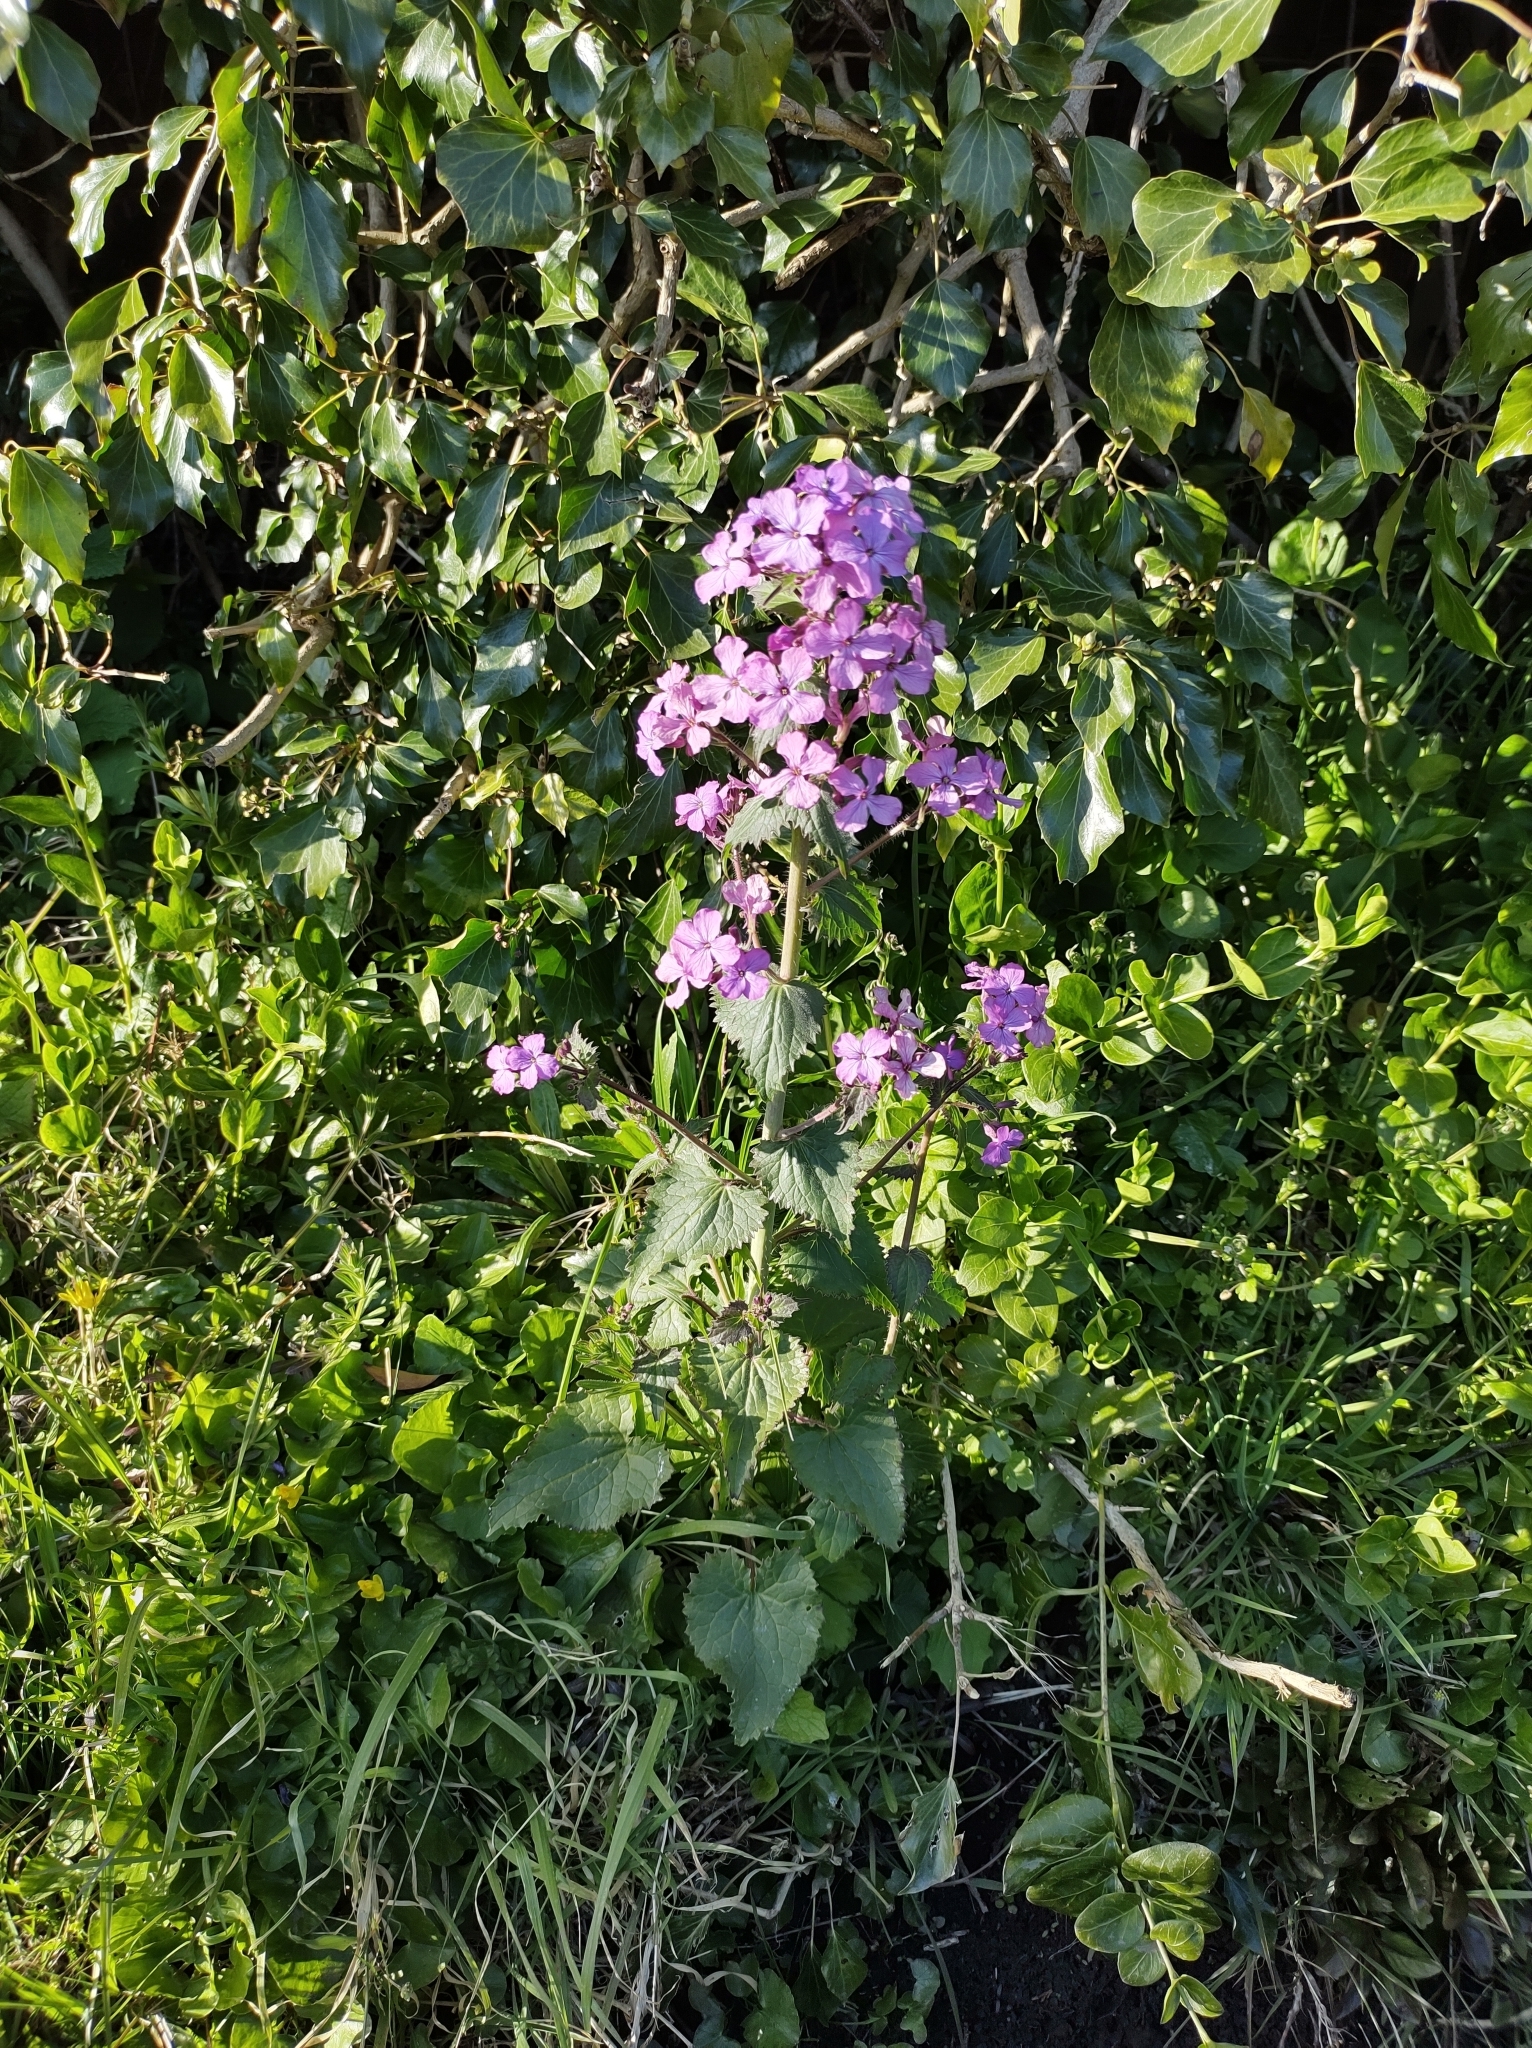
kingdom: Plantae
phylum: Tracheophyta
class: Magnoliopsida
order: Brassicales
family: Brassicaceae
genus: Lunaria
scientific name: Lunaria annua
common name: Honesty
